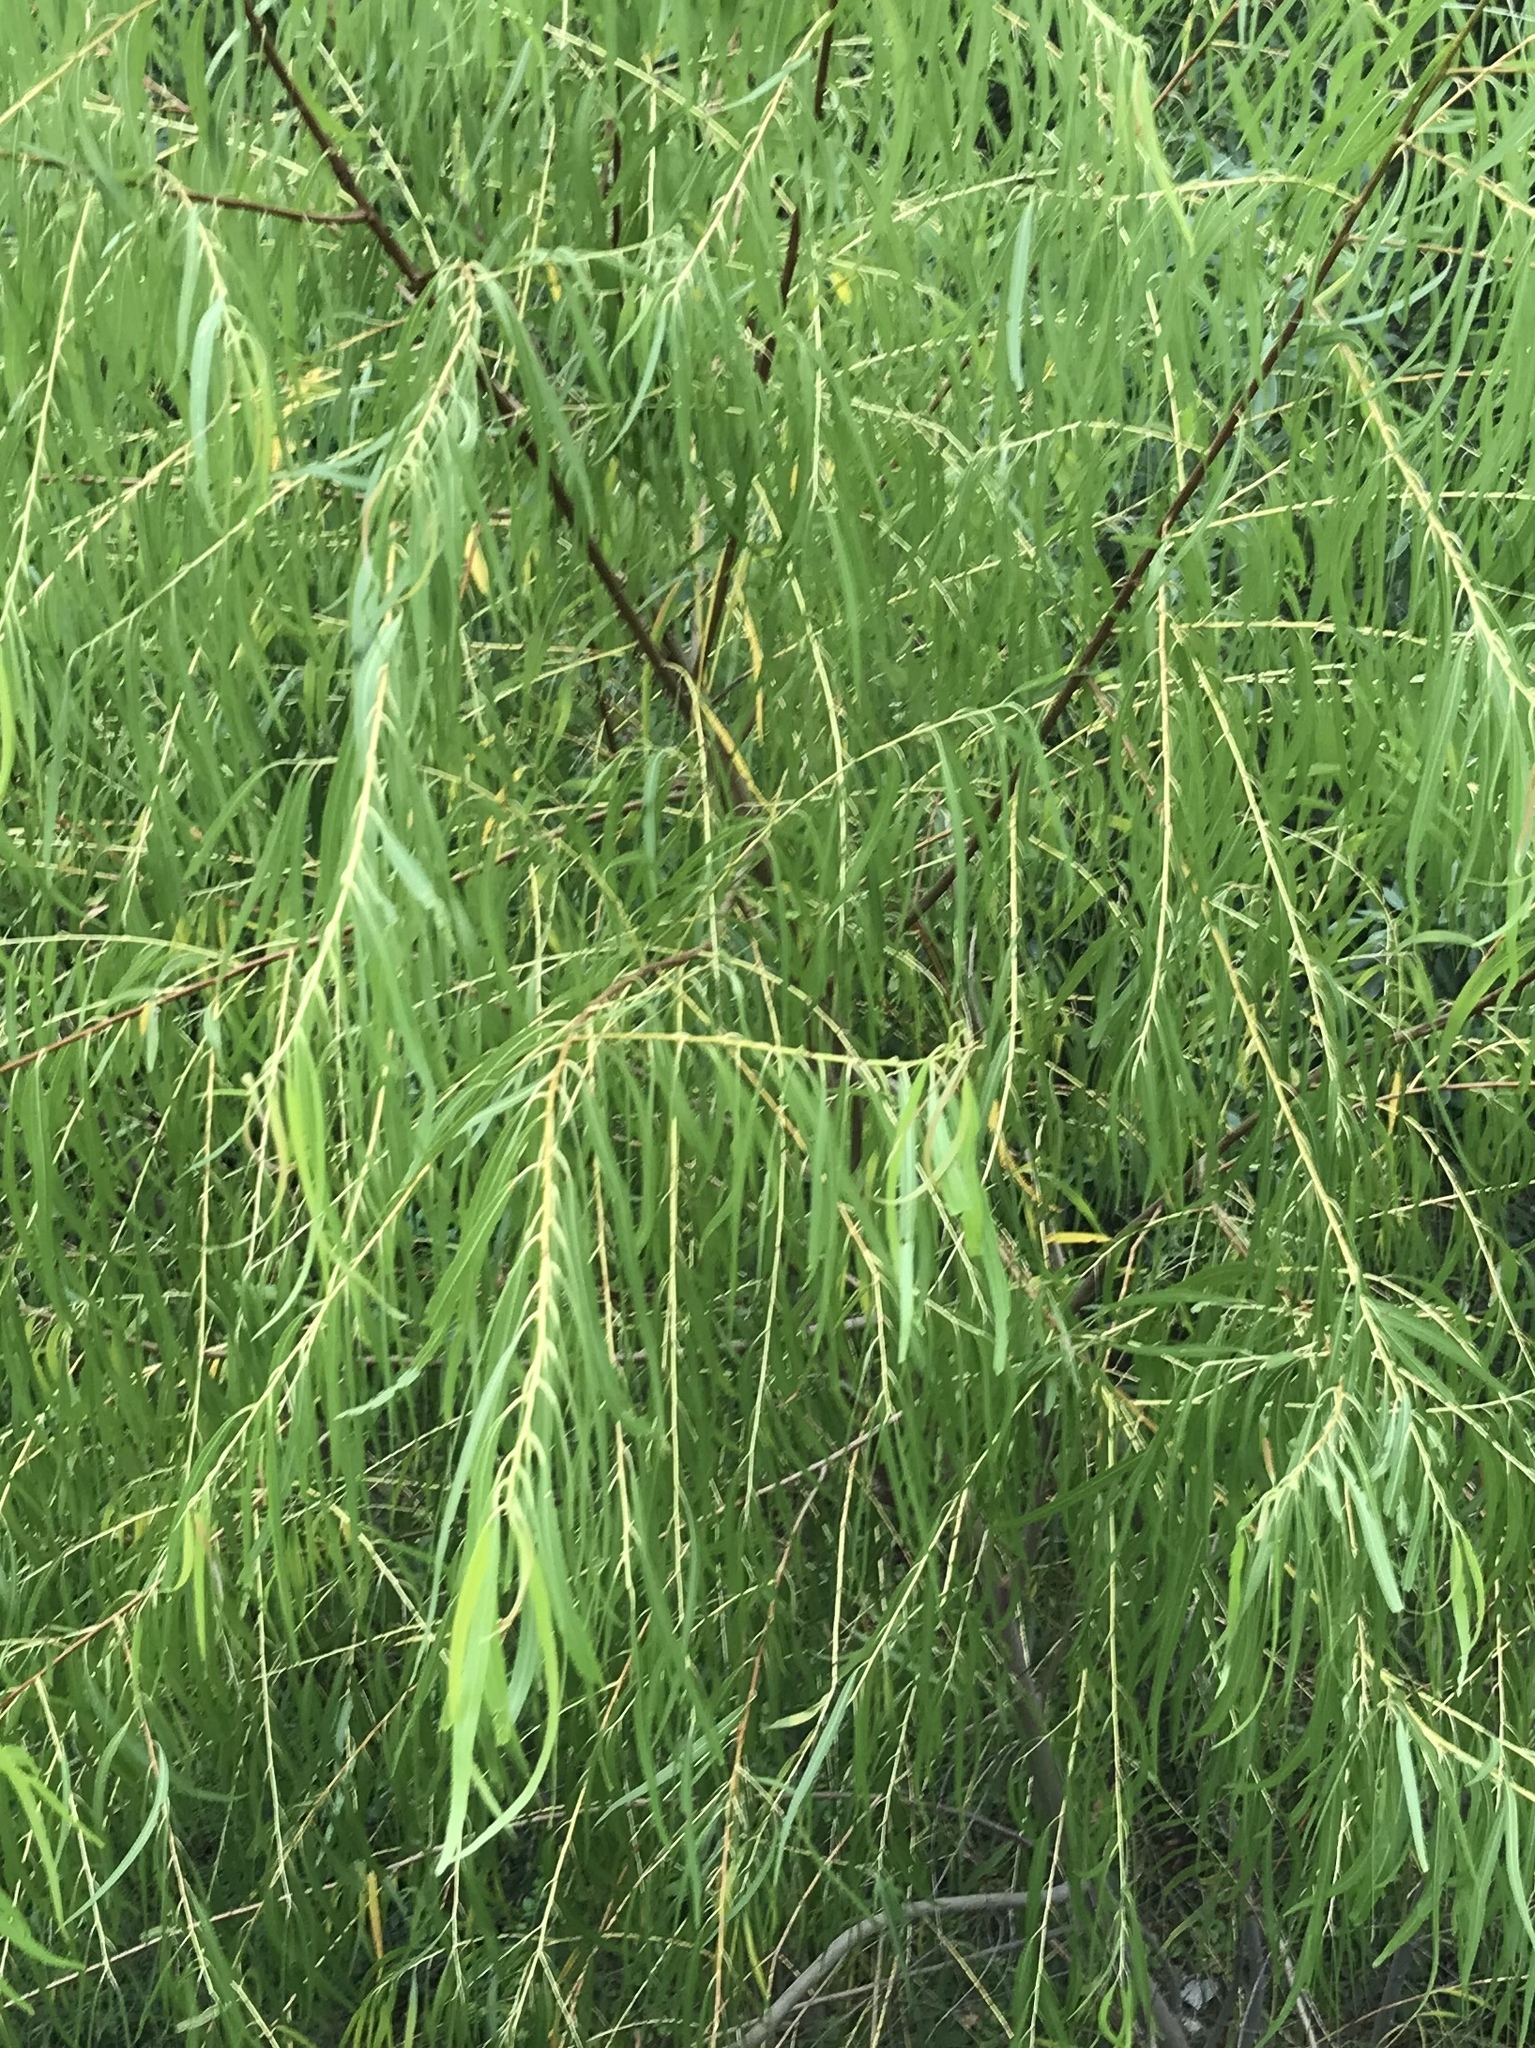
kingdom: Plantae
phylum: Tracheophyta
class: Magnoliopsida
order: Malpighiales
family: Salicaceae
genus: Salix
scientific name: Salix nigra
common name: Black willow
